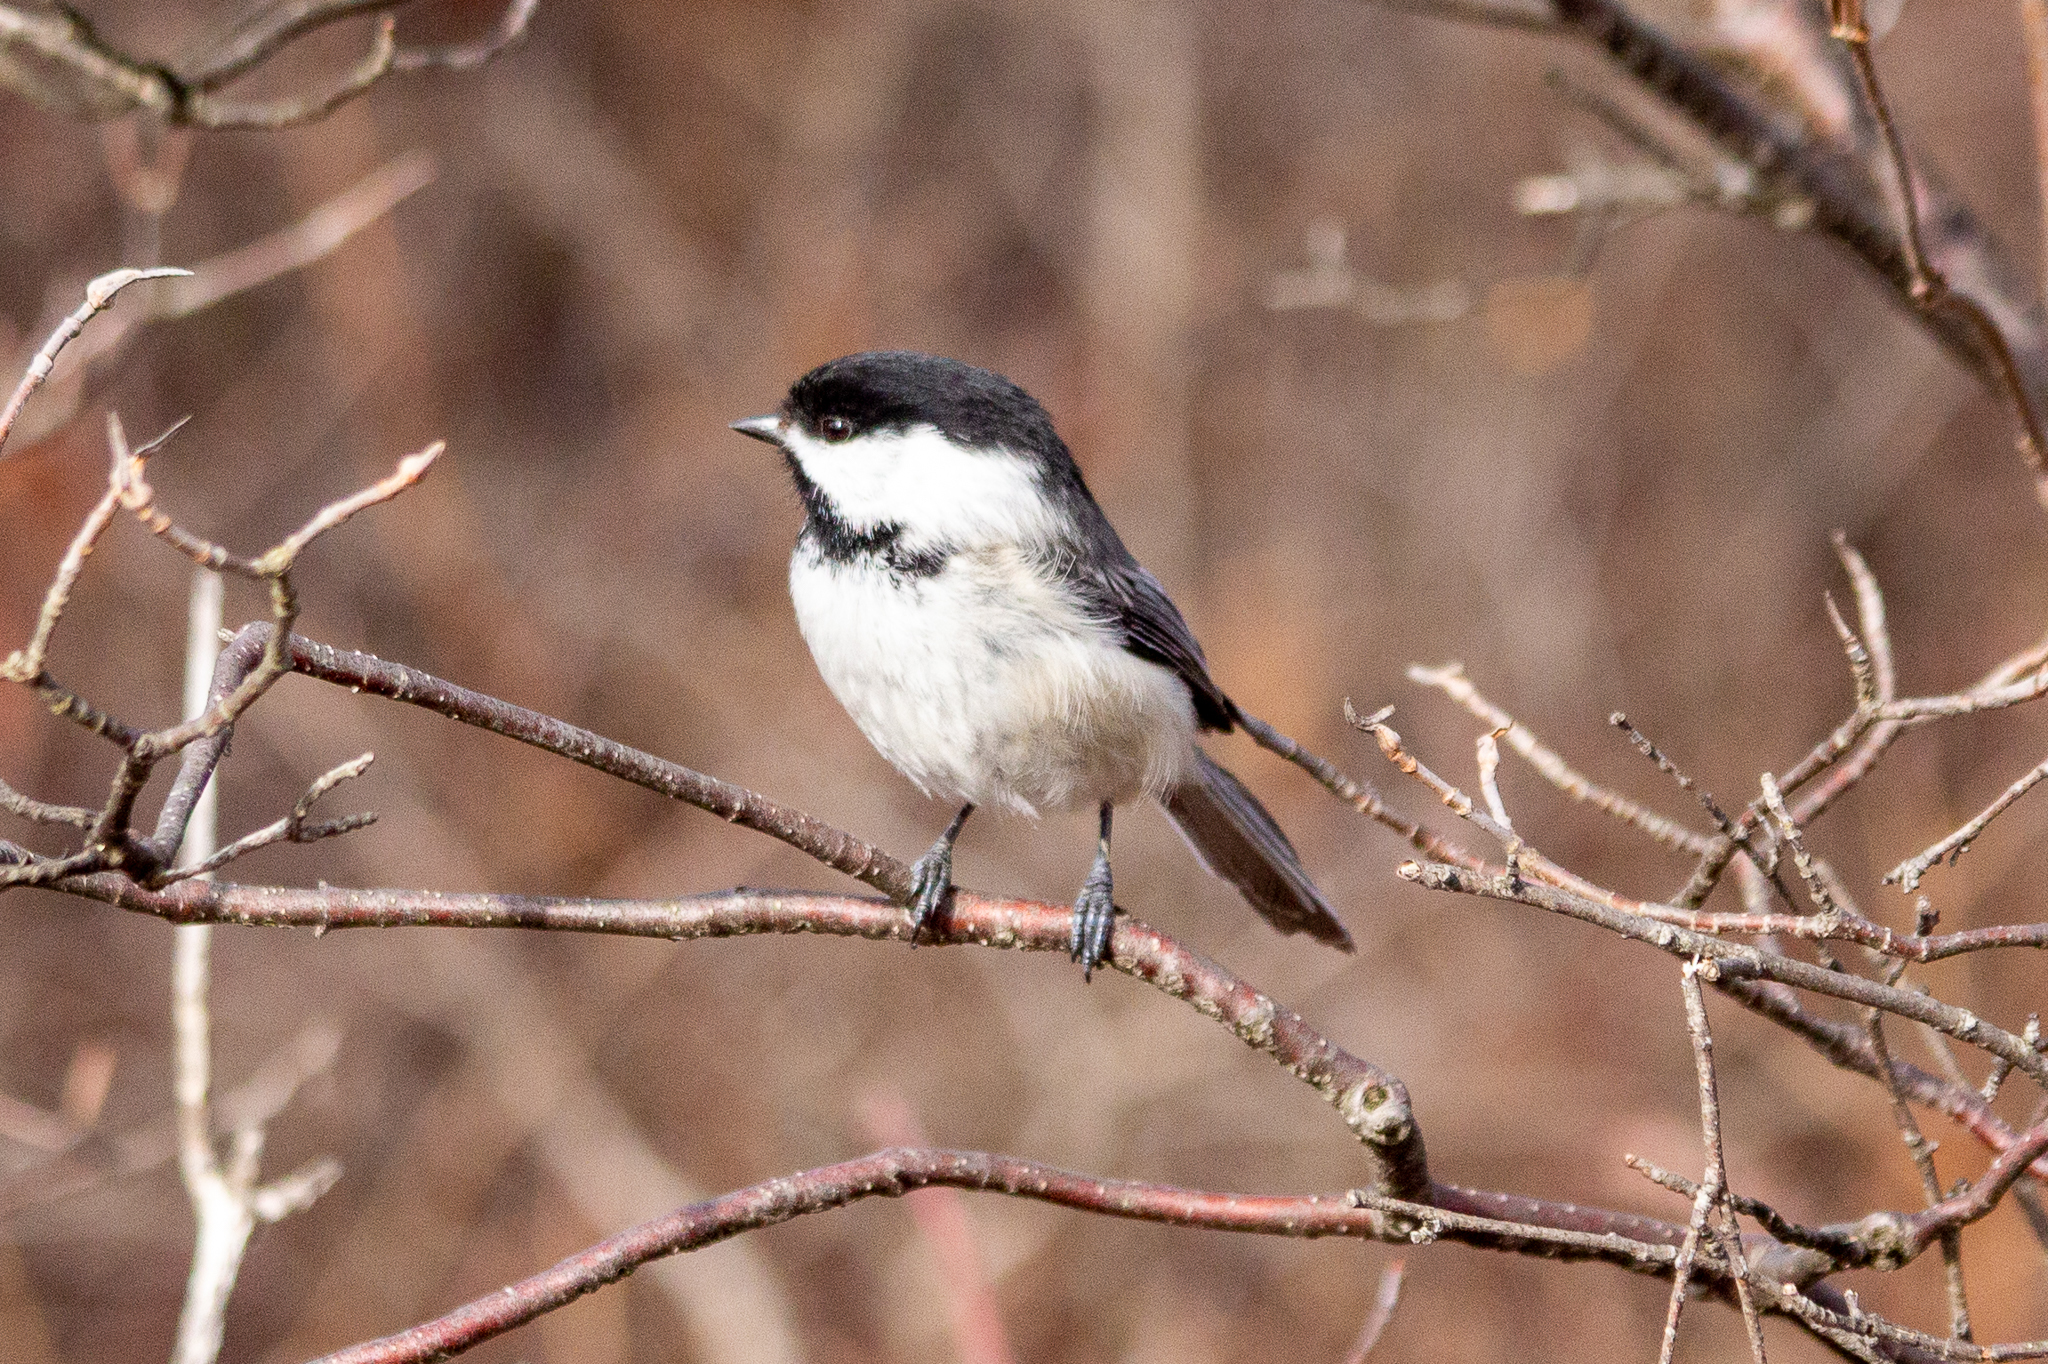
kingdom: Animalia
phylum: Chordata
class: Aves
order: Passeriformes
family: Paridae
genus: Poecile
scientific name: Poecile atricapillus
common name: Black-capped chickadee
